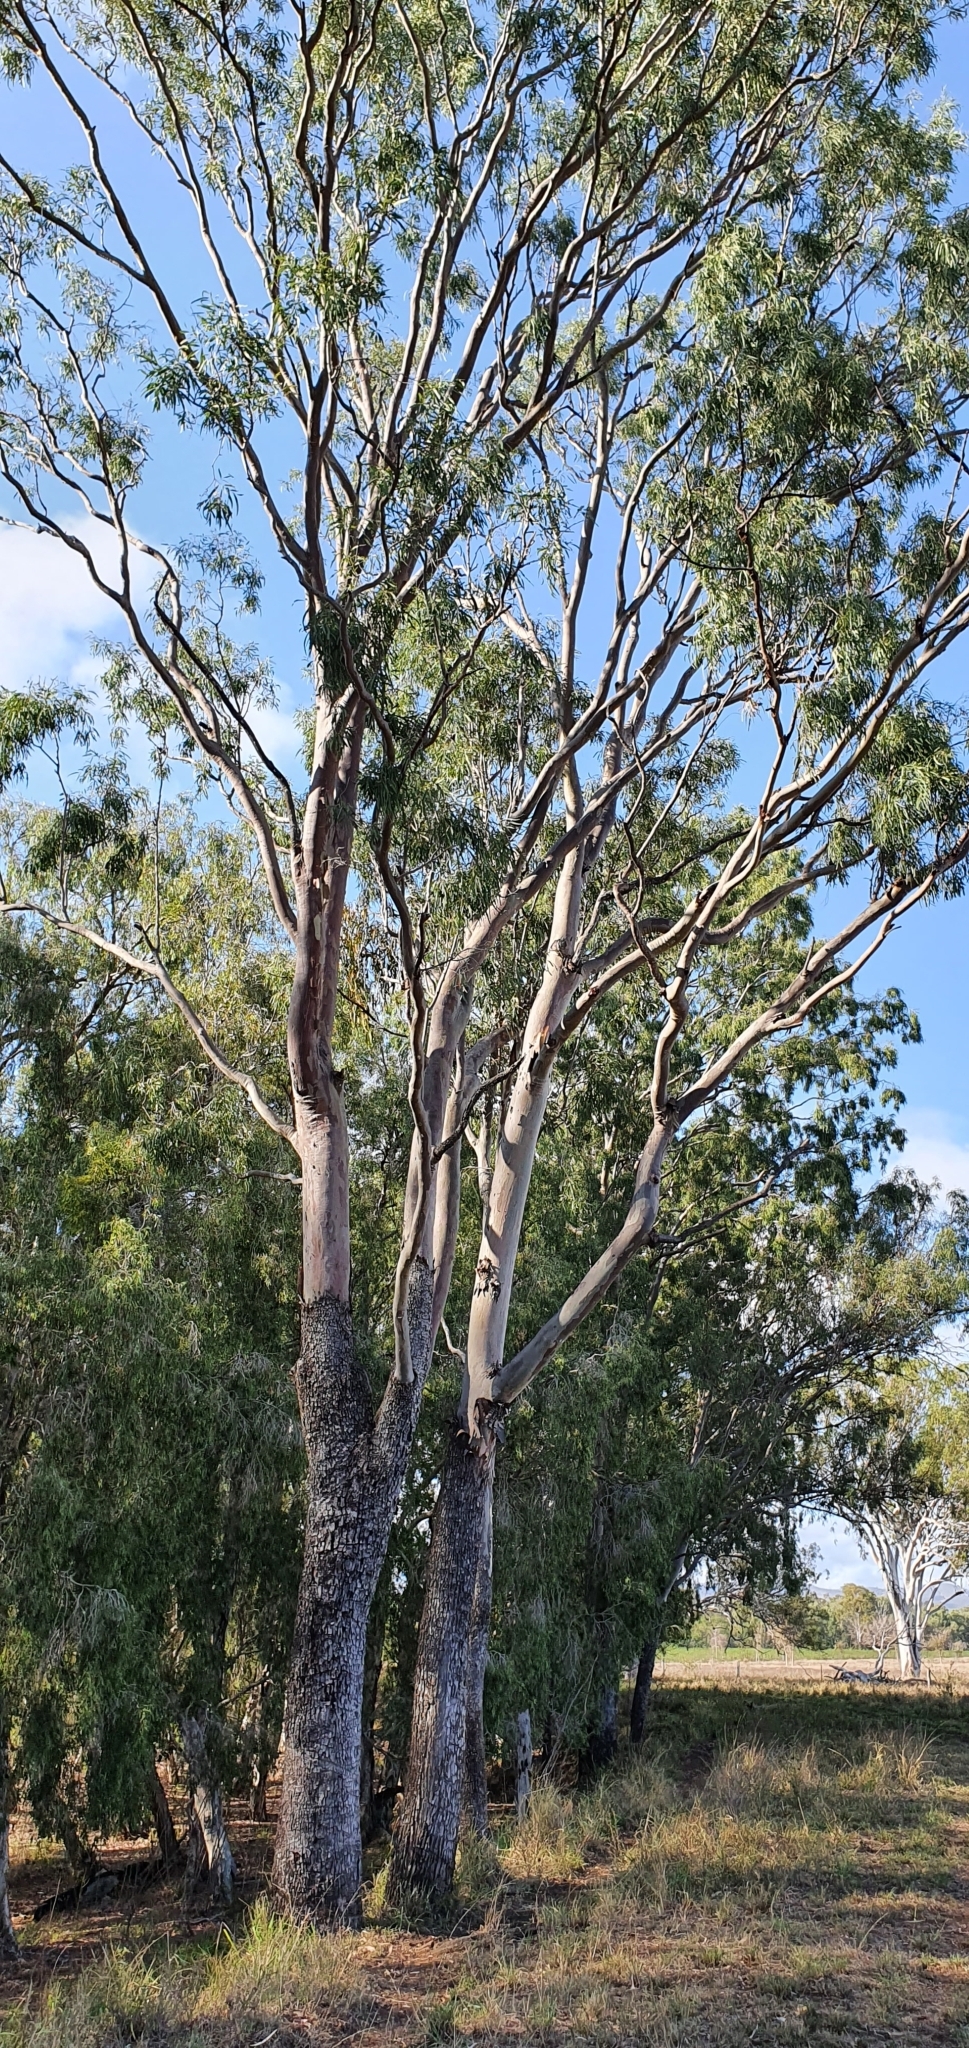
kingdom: Plantae
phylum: Tracheophyta
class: Magnoliopsida
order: Myrtales
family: Myrtaceae
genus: Corymbia
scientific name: Corymbia tessellaris
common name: Carbeen
